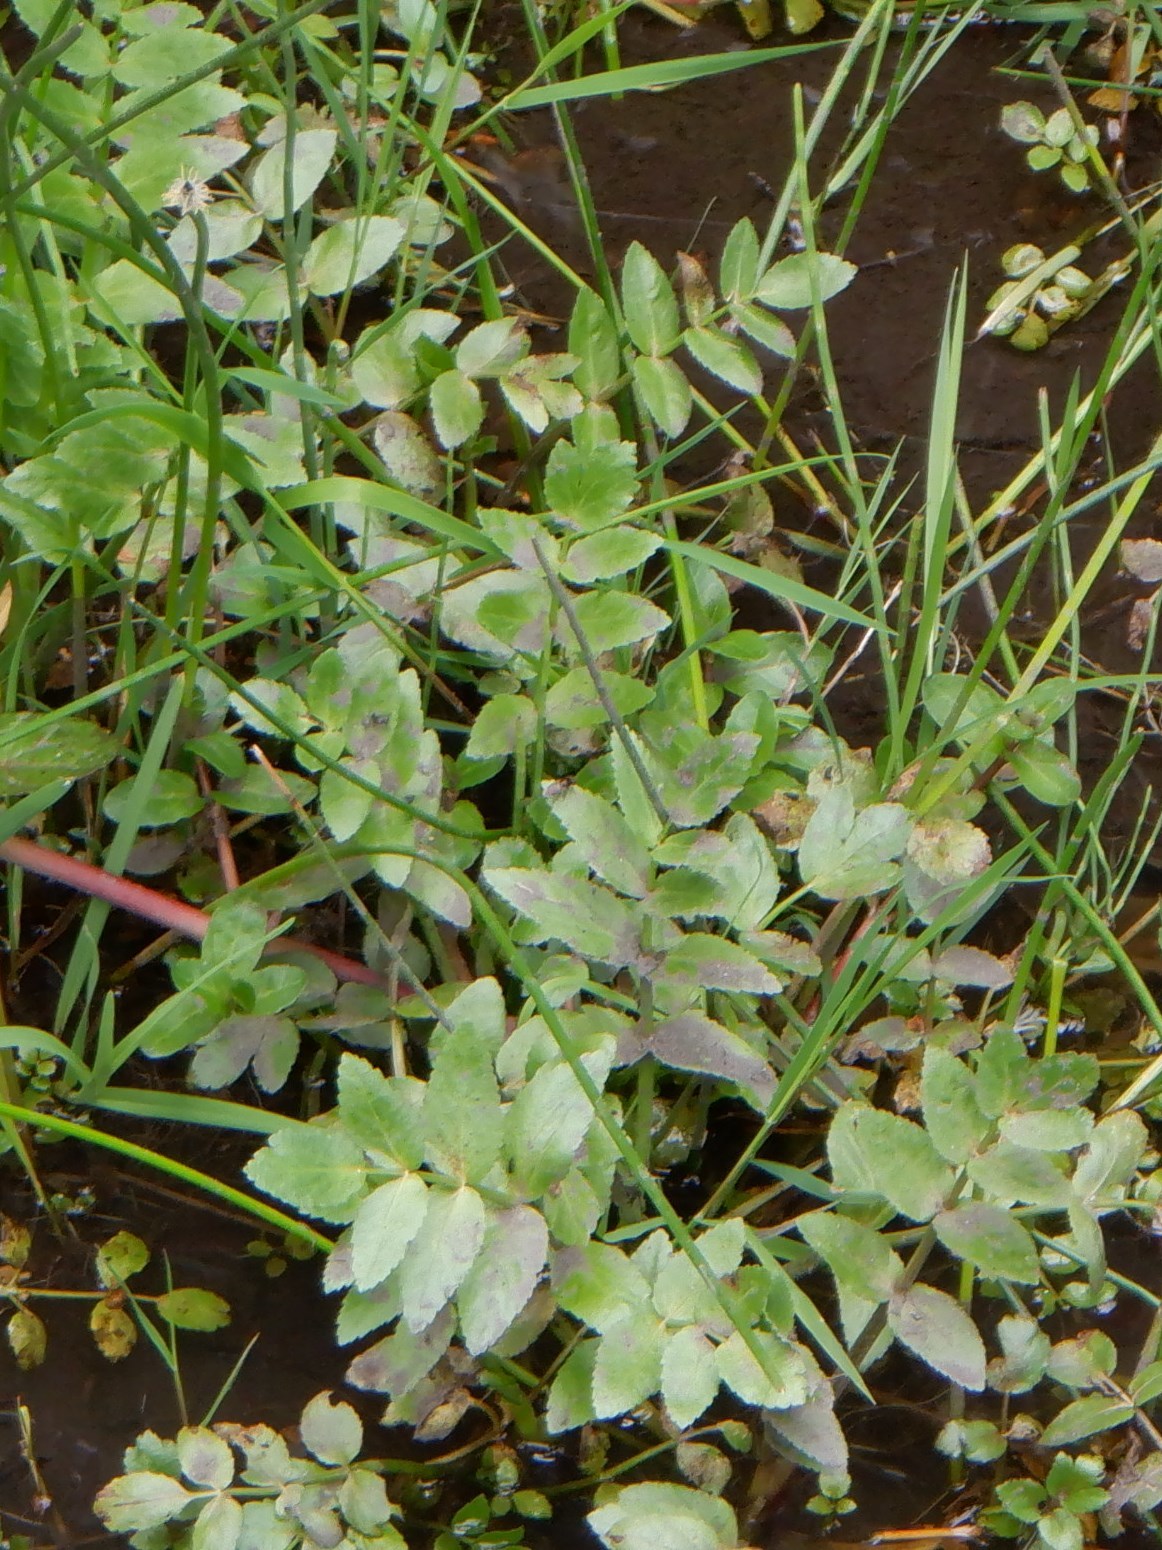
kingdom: Plantae
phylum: Tracheophyta
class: Magnoliopsida
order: Apiales
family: Apiaceae
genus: Helosciadium
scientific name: Helosciadium nodiflorum
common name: Fool's-watercress
